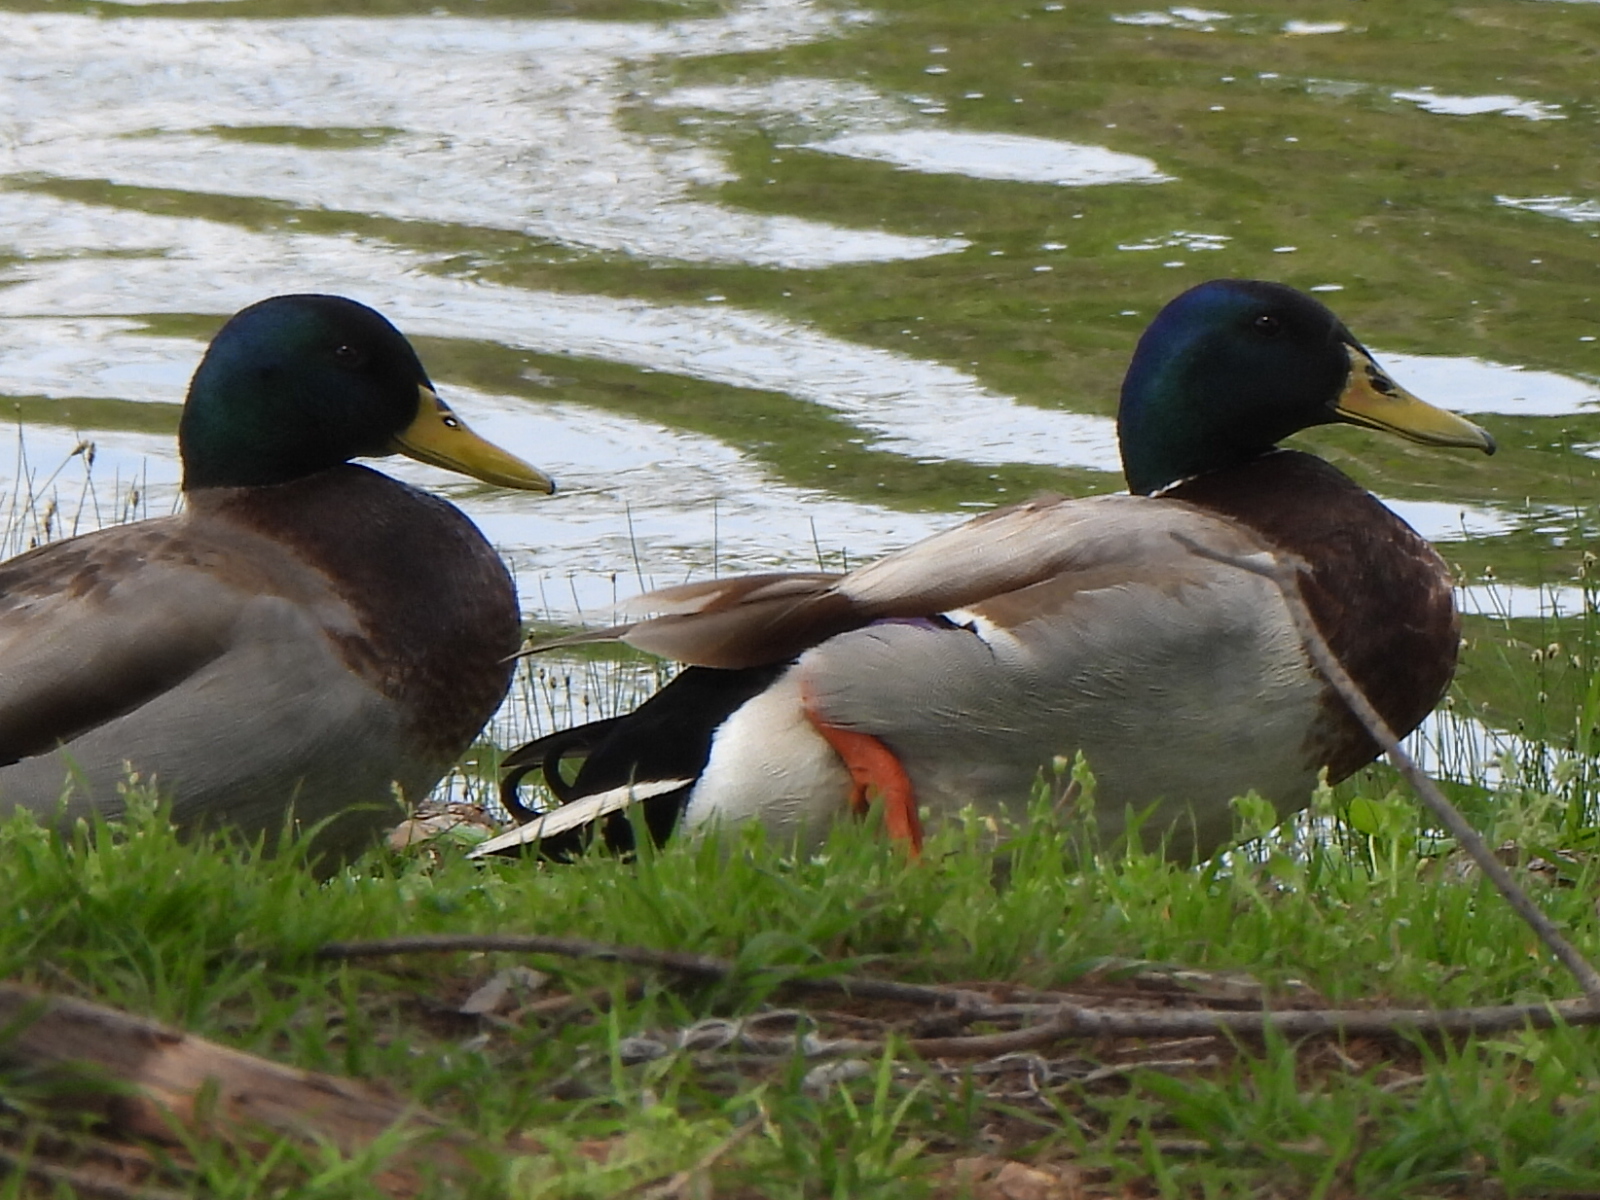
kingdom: Animalia
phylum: Chordata
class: Aves
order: Anseriformes
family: Anatidae
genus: Anas
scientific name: Anas platyrhynchos
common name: Mallard
